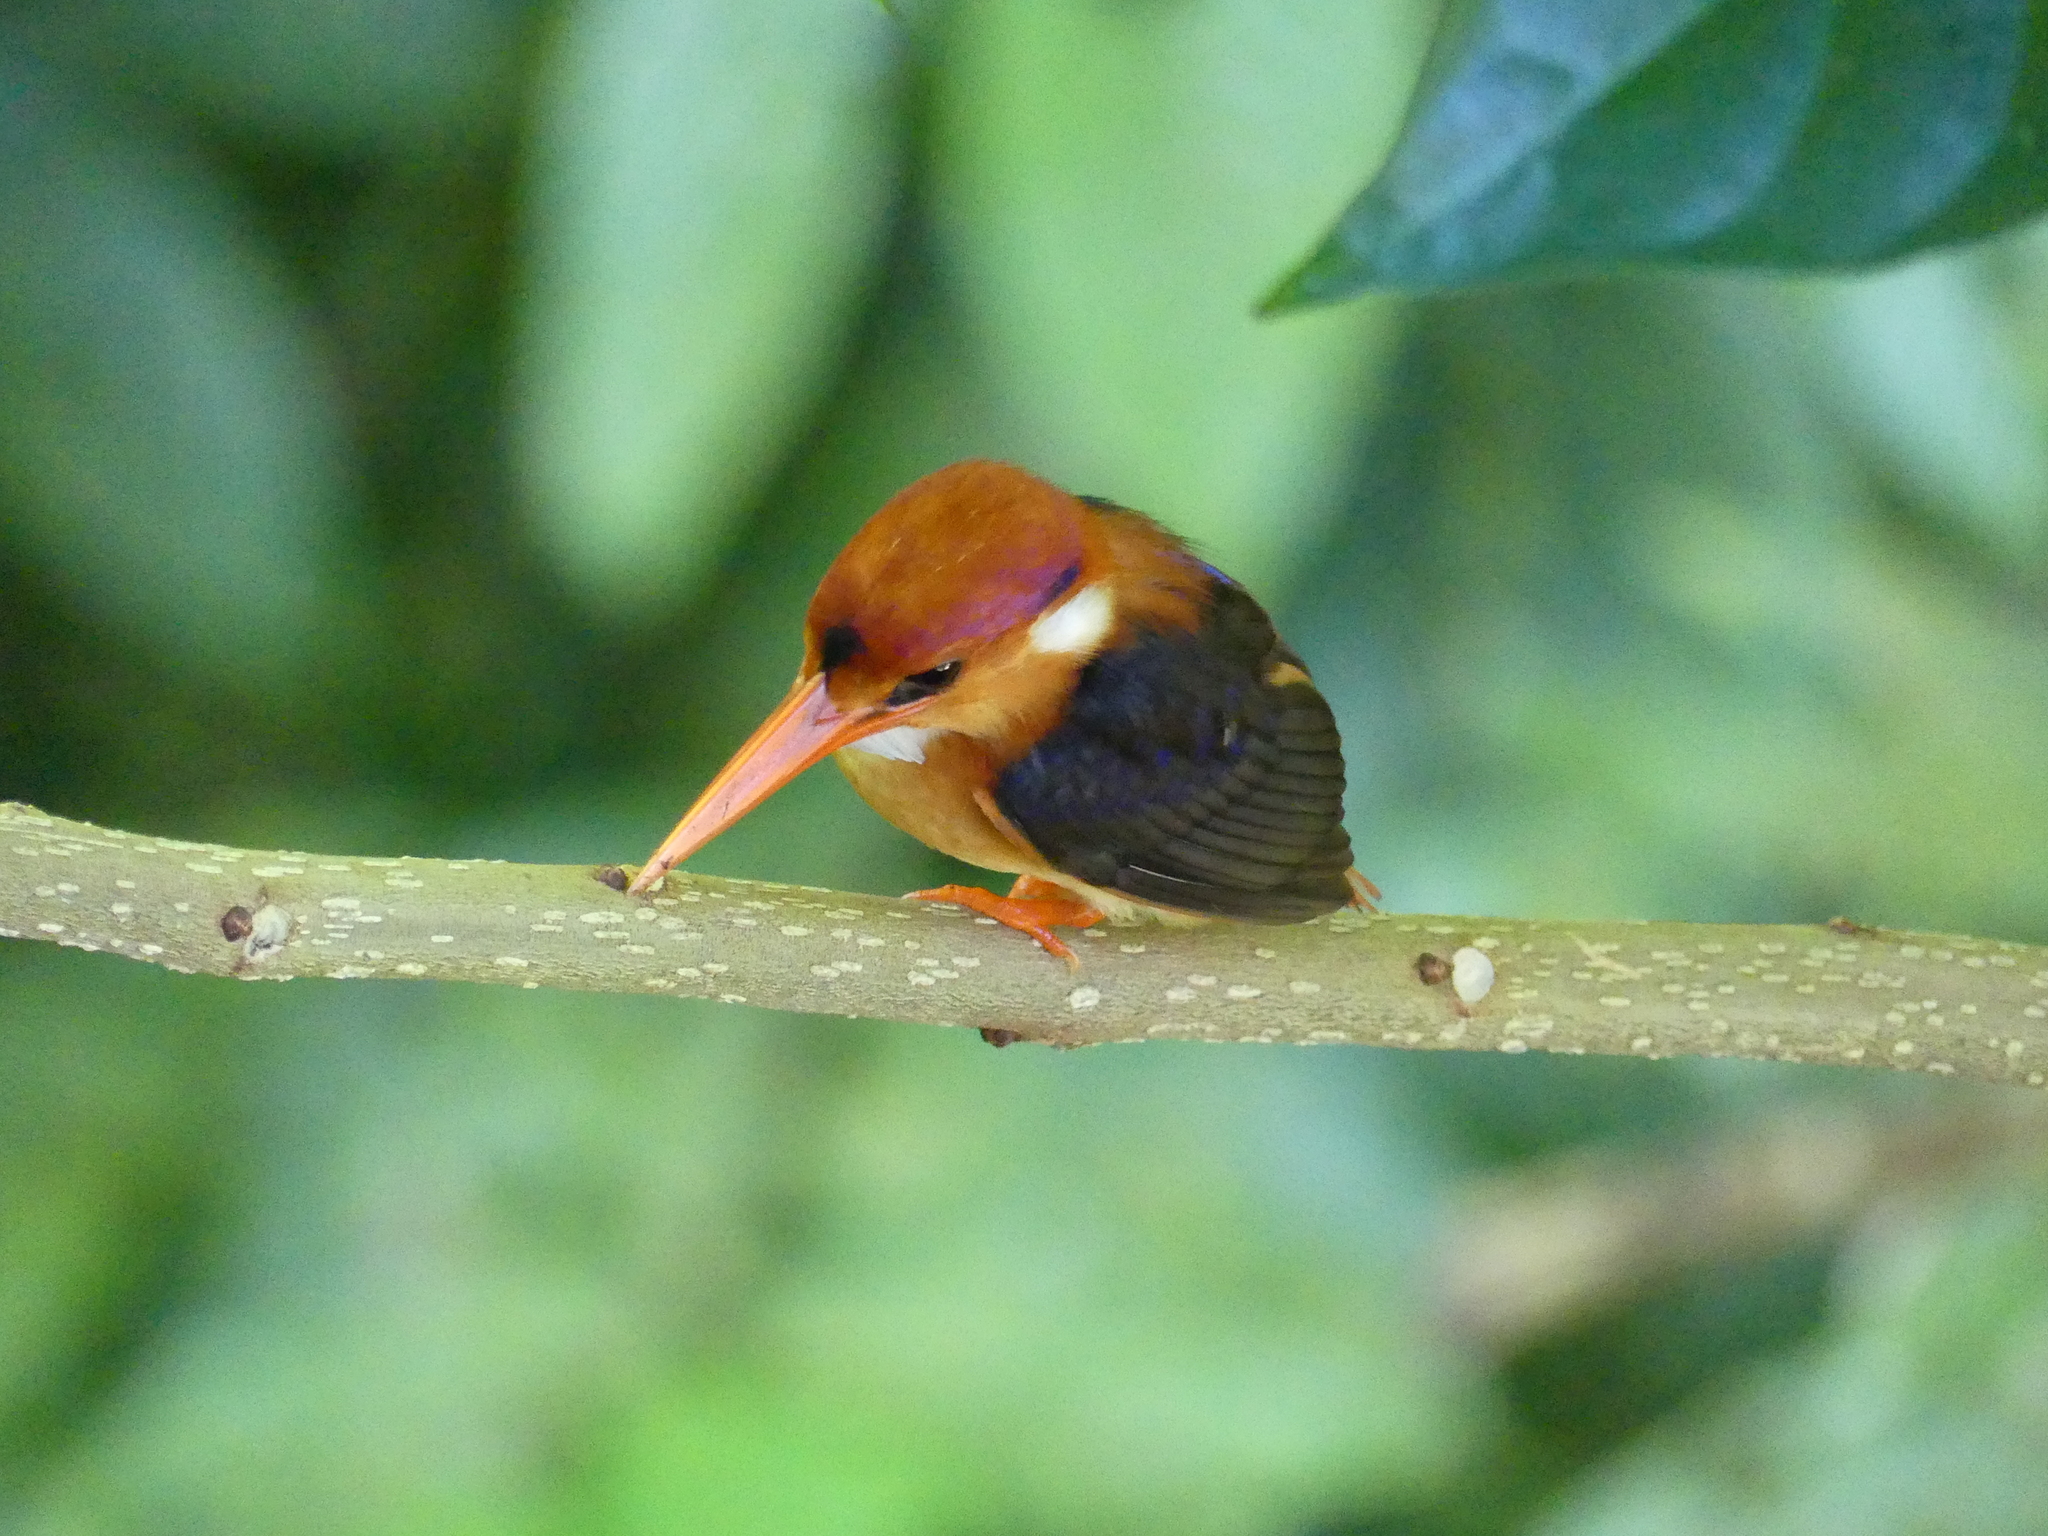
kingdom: Animalia
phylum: Chordata
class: Aves
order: Coraciiformes
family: Alcedinidae
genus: Ceyx
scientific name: Ceyx erithaca
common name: Oriental dwarf kingfisher
